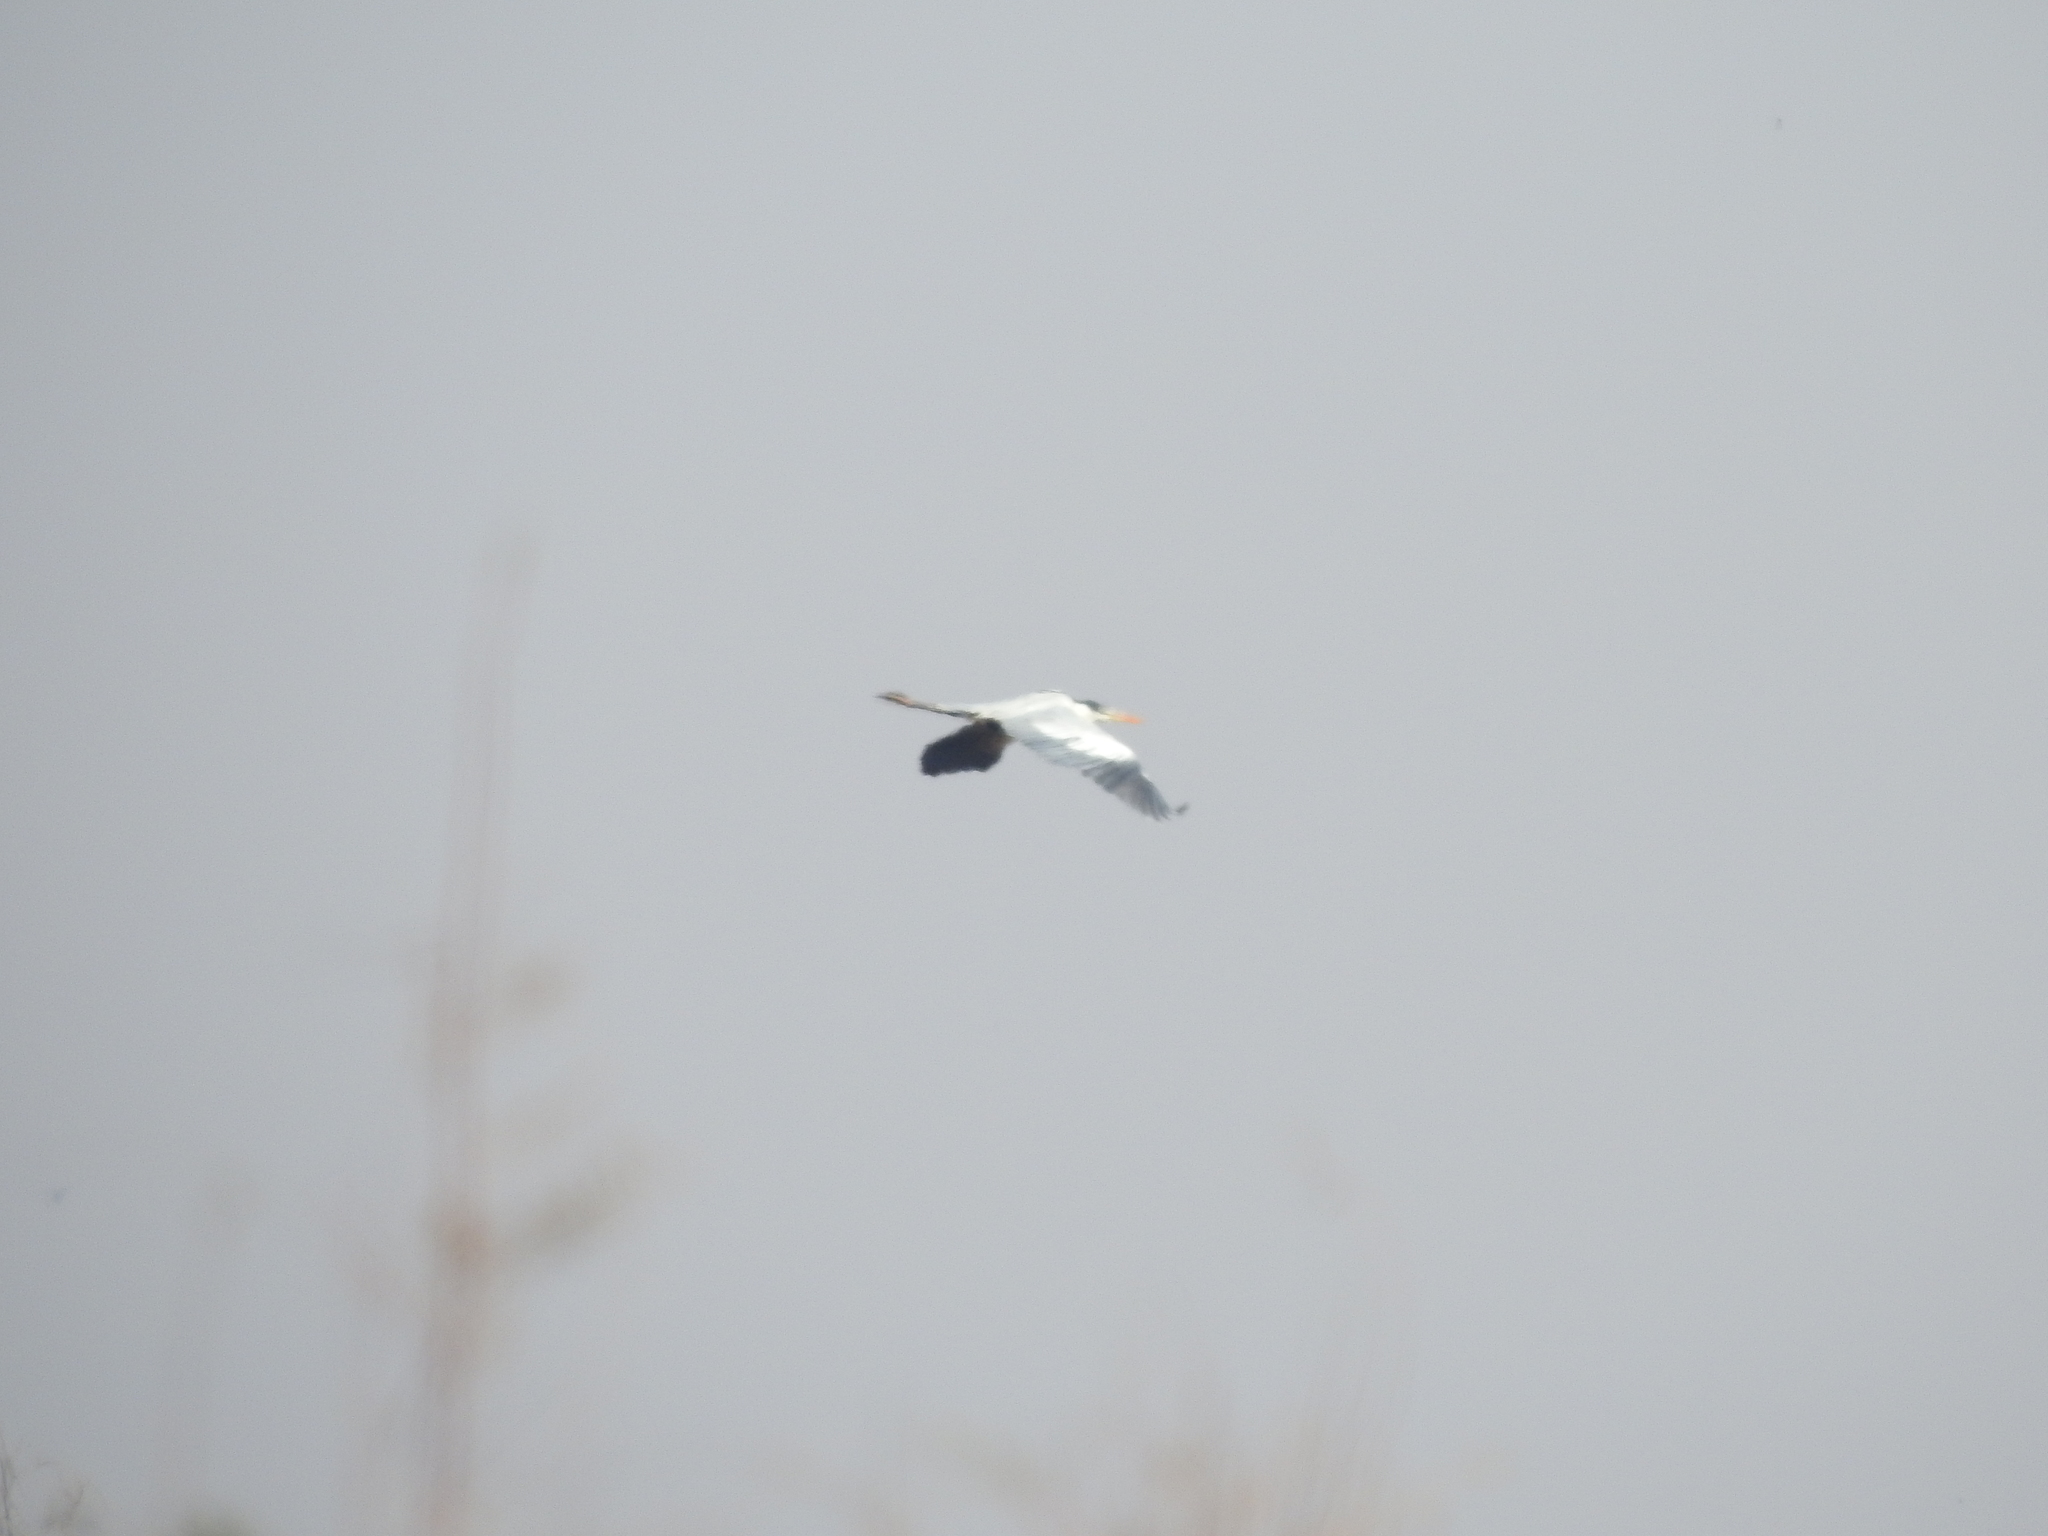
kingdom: Animalia
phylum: Chordata
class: Aves
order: Pelecaniformes
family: Ardeidae
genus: Ardea
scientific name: Ardea cocoi
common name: Cocoi heron
